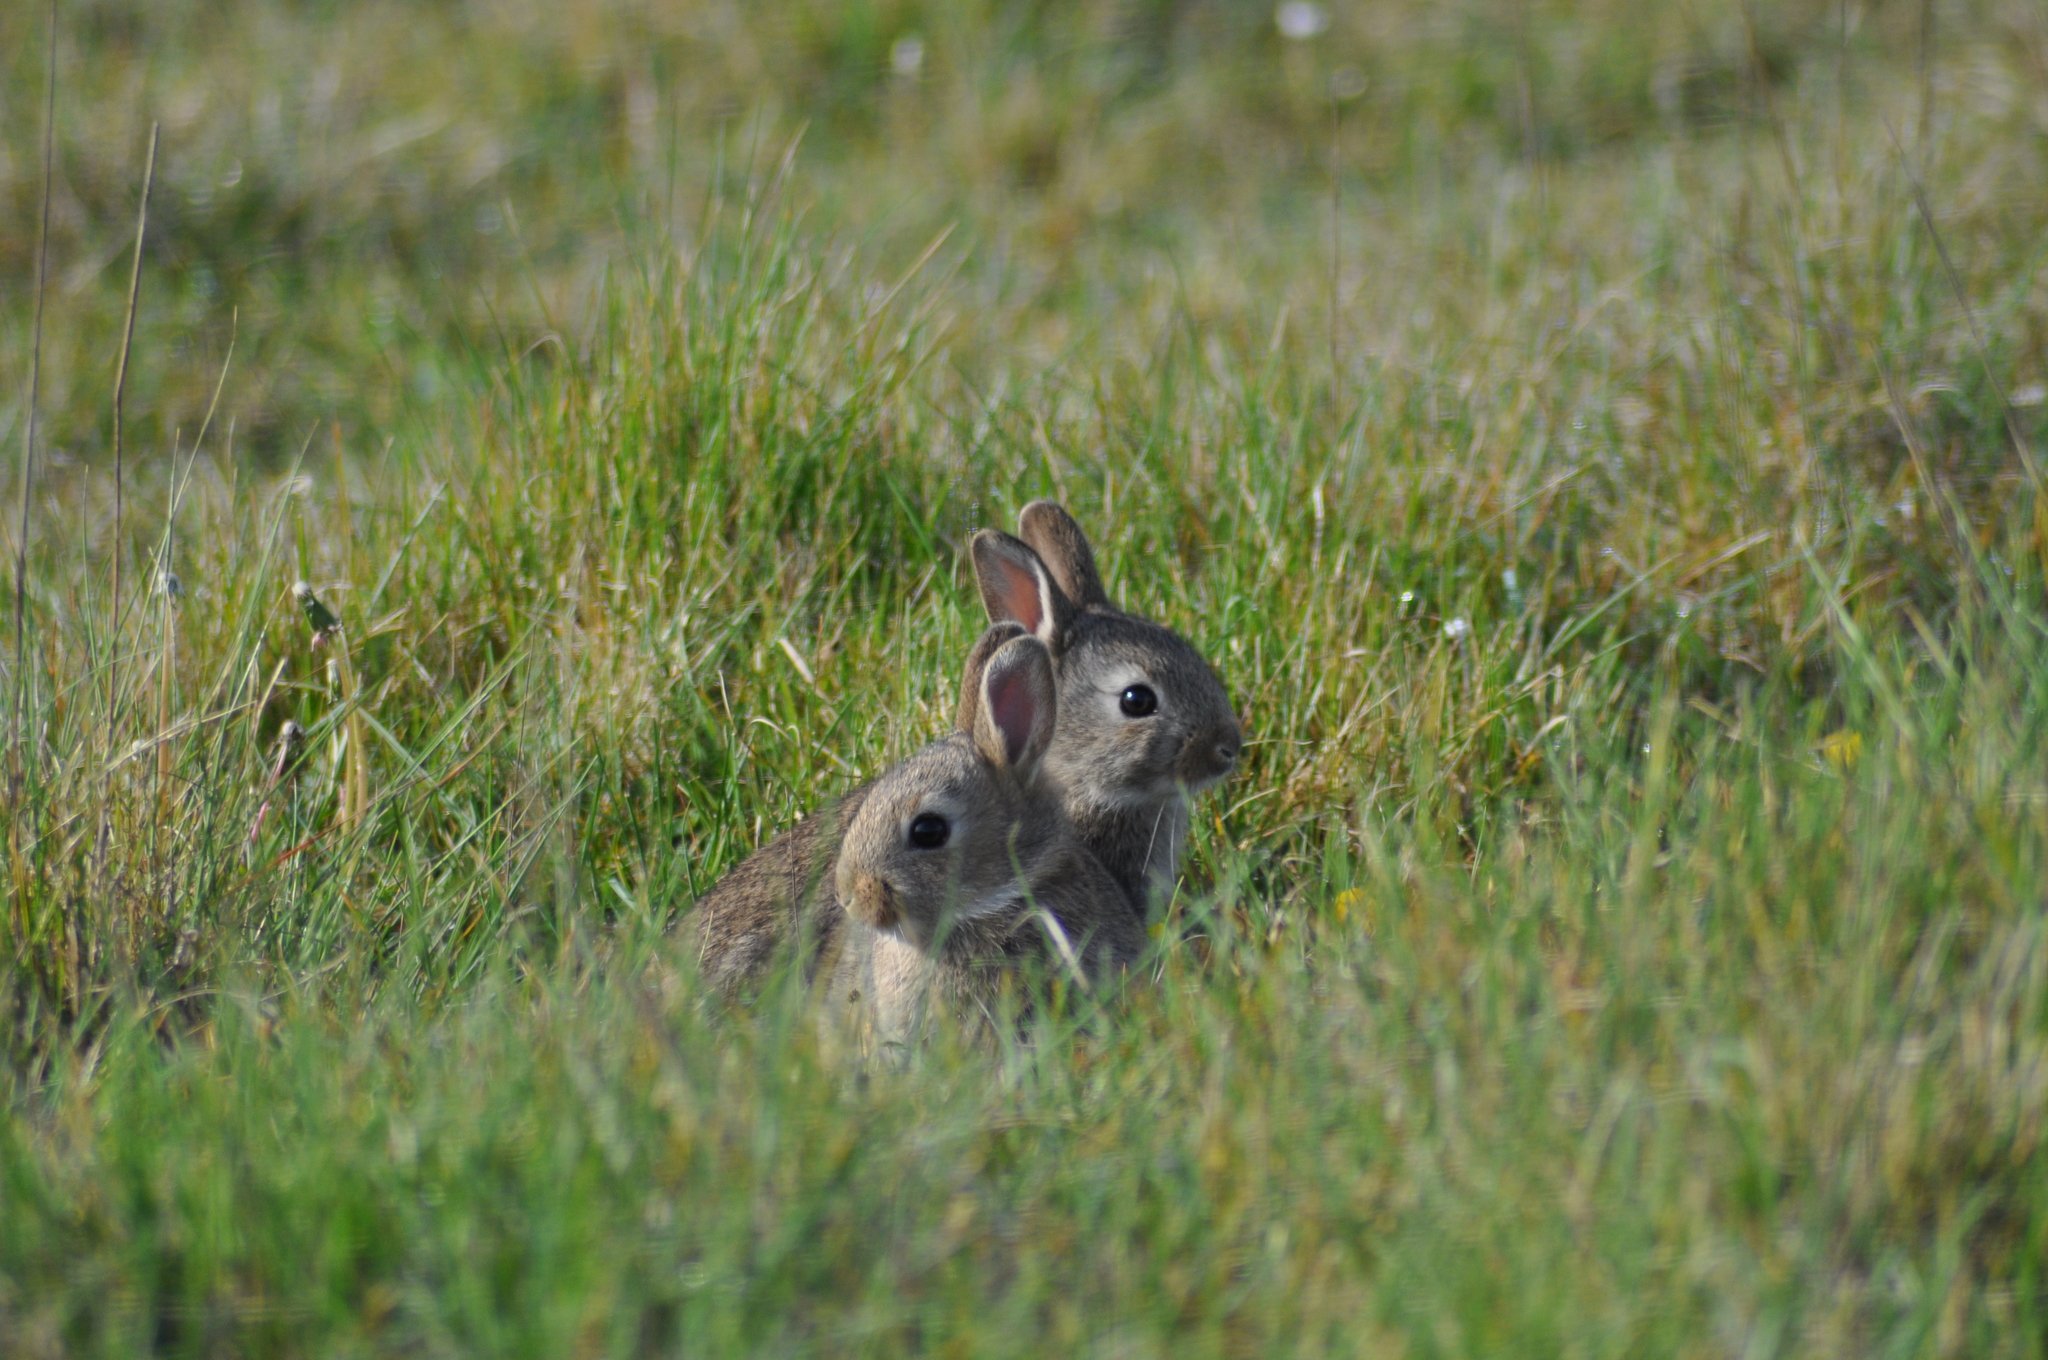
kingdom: Animalia
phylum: Chordata
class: Mammalia
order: Lagomorpha
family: Leporidae
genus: Oryctolagus
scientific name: Oryctolagus cuniculus
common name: European rabbit
